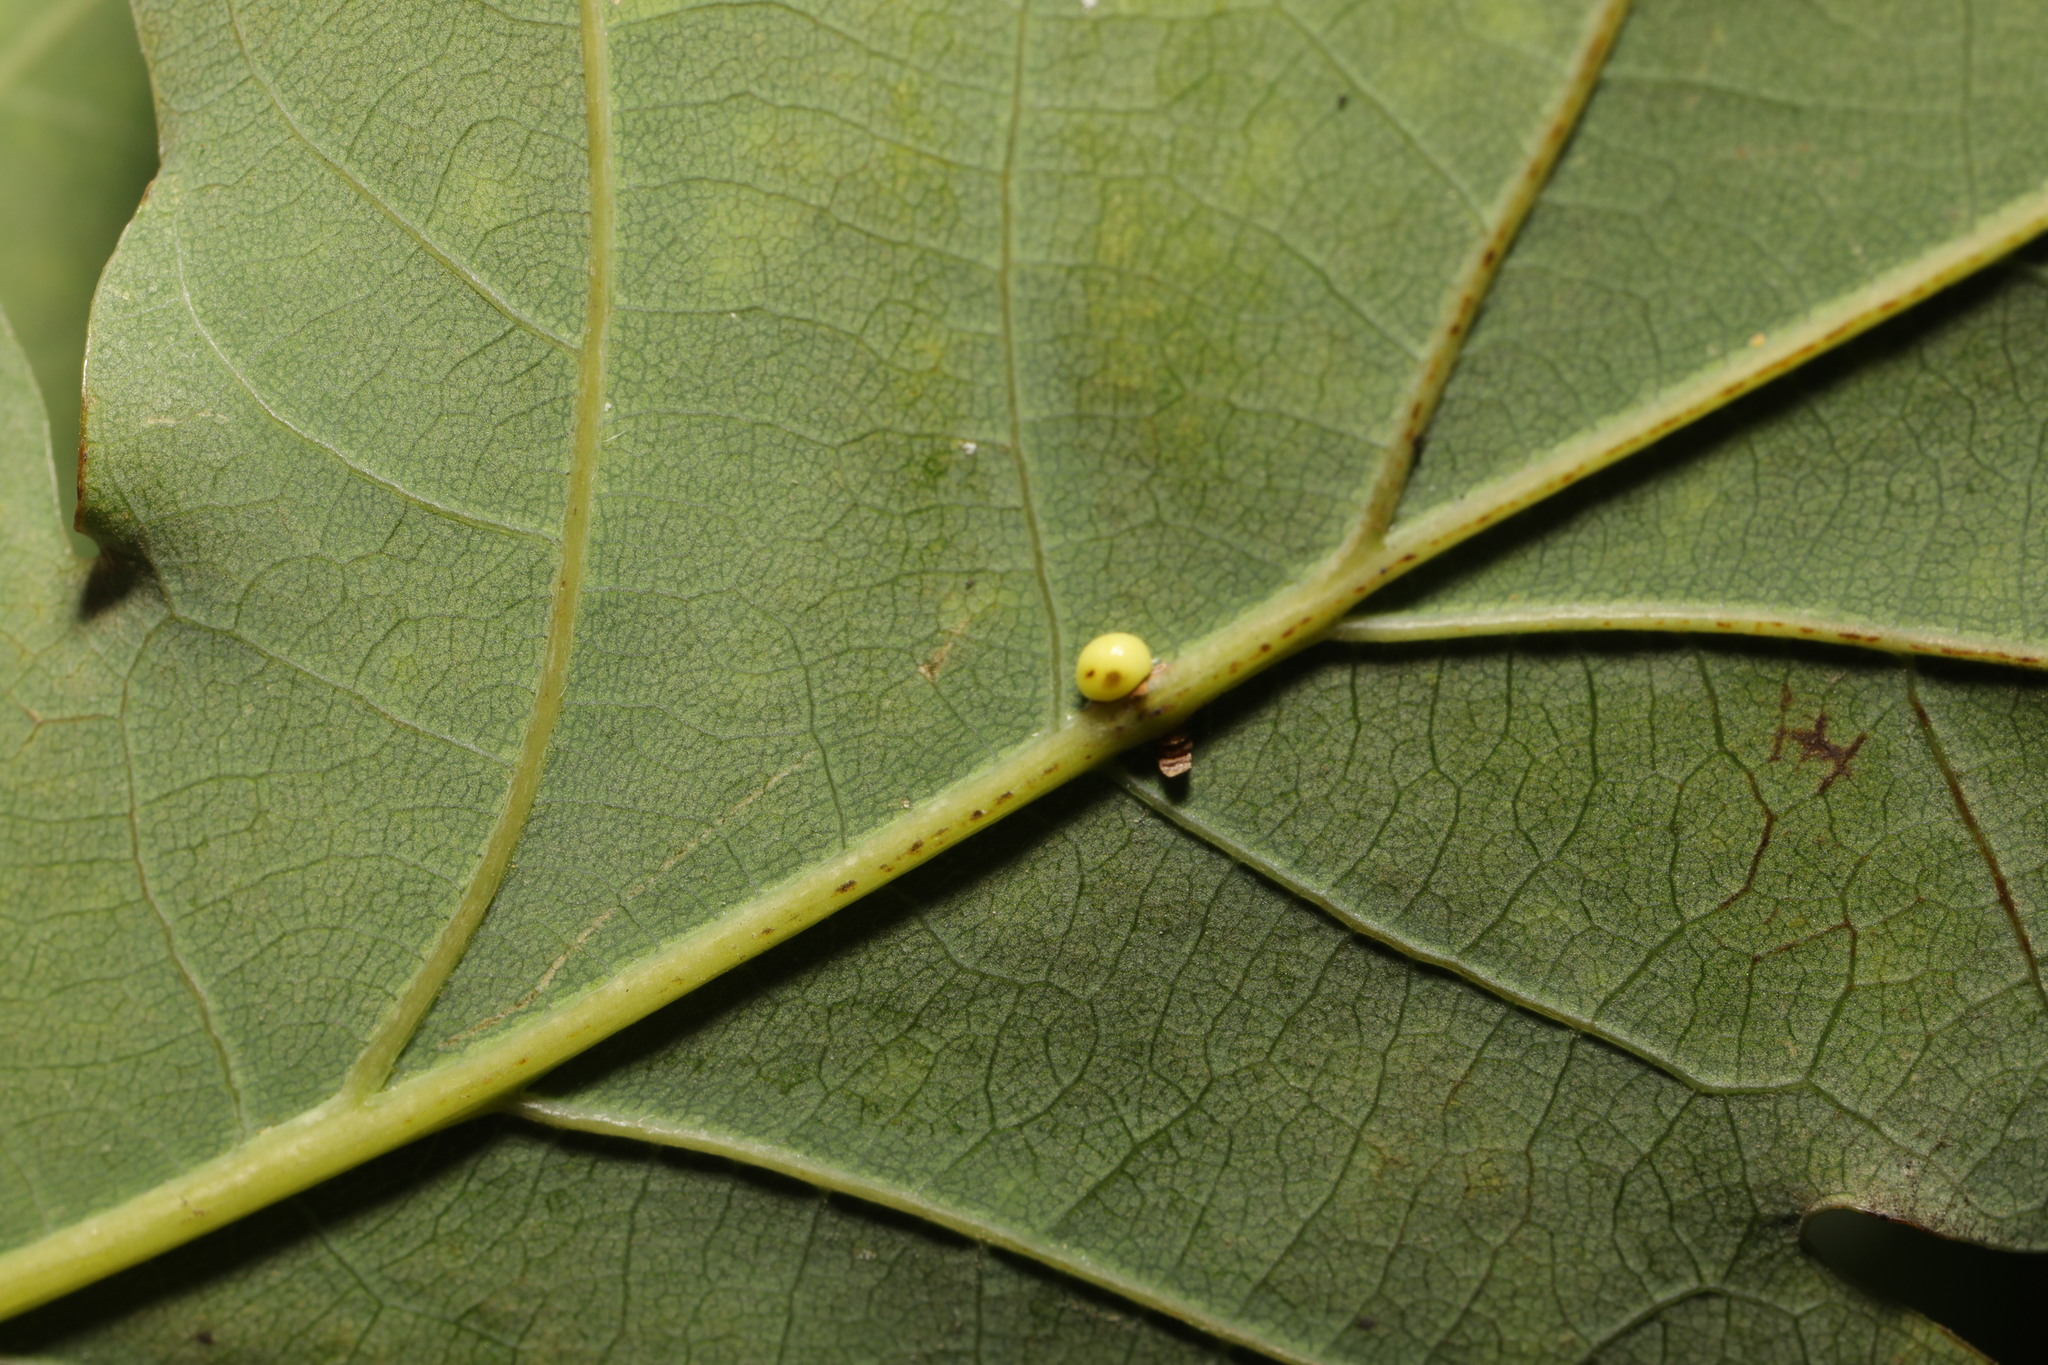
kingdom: Animalia
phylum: Arthropoda
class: Insecta
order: Hymenoptera
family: Cynipidae
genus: Neuroterus
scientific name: Neuroterus anthracinus
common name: Oyster gall
